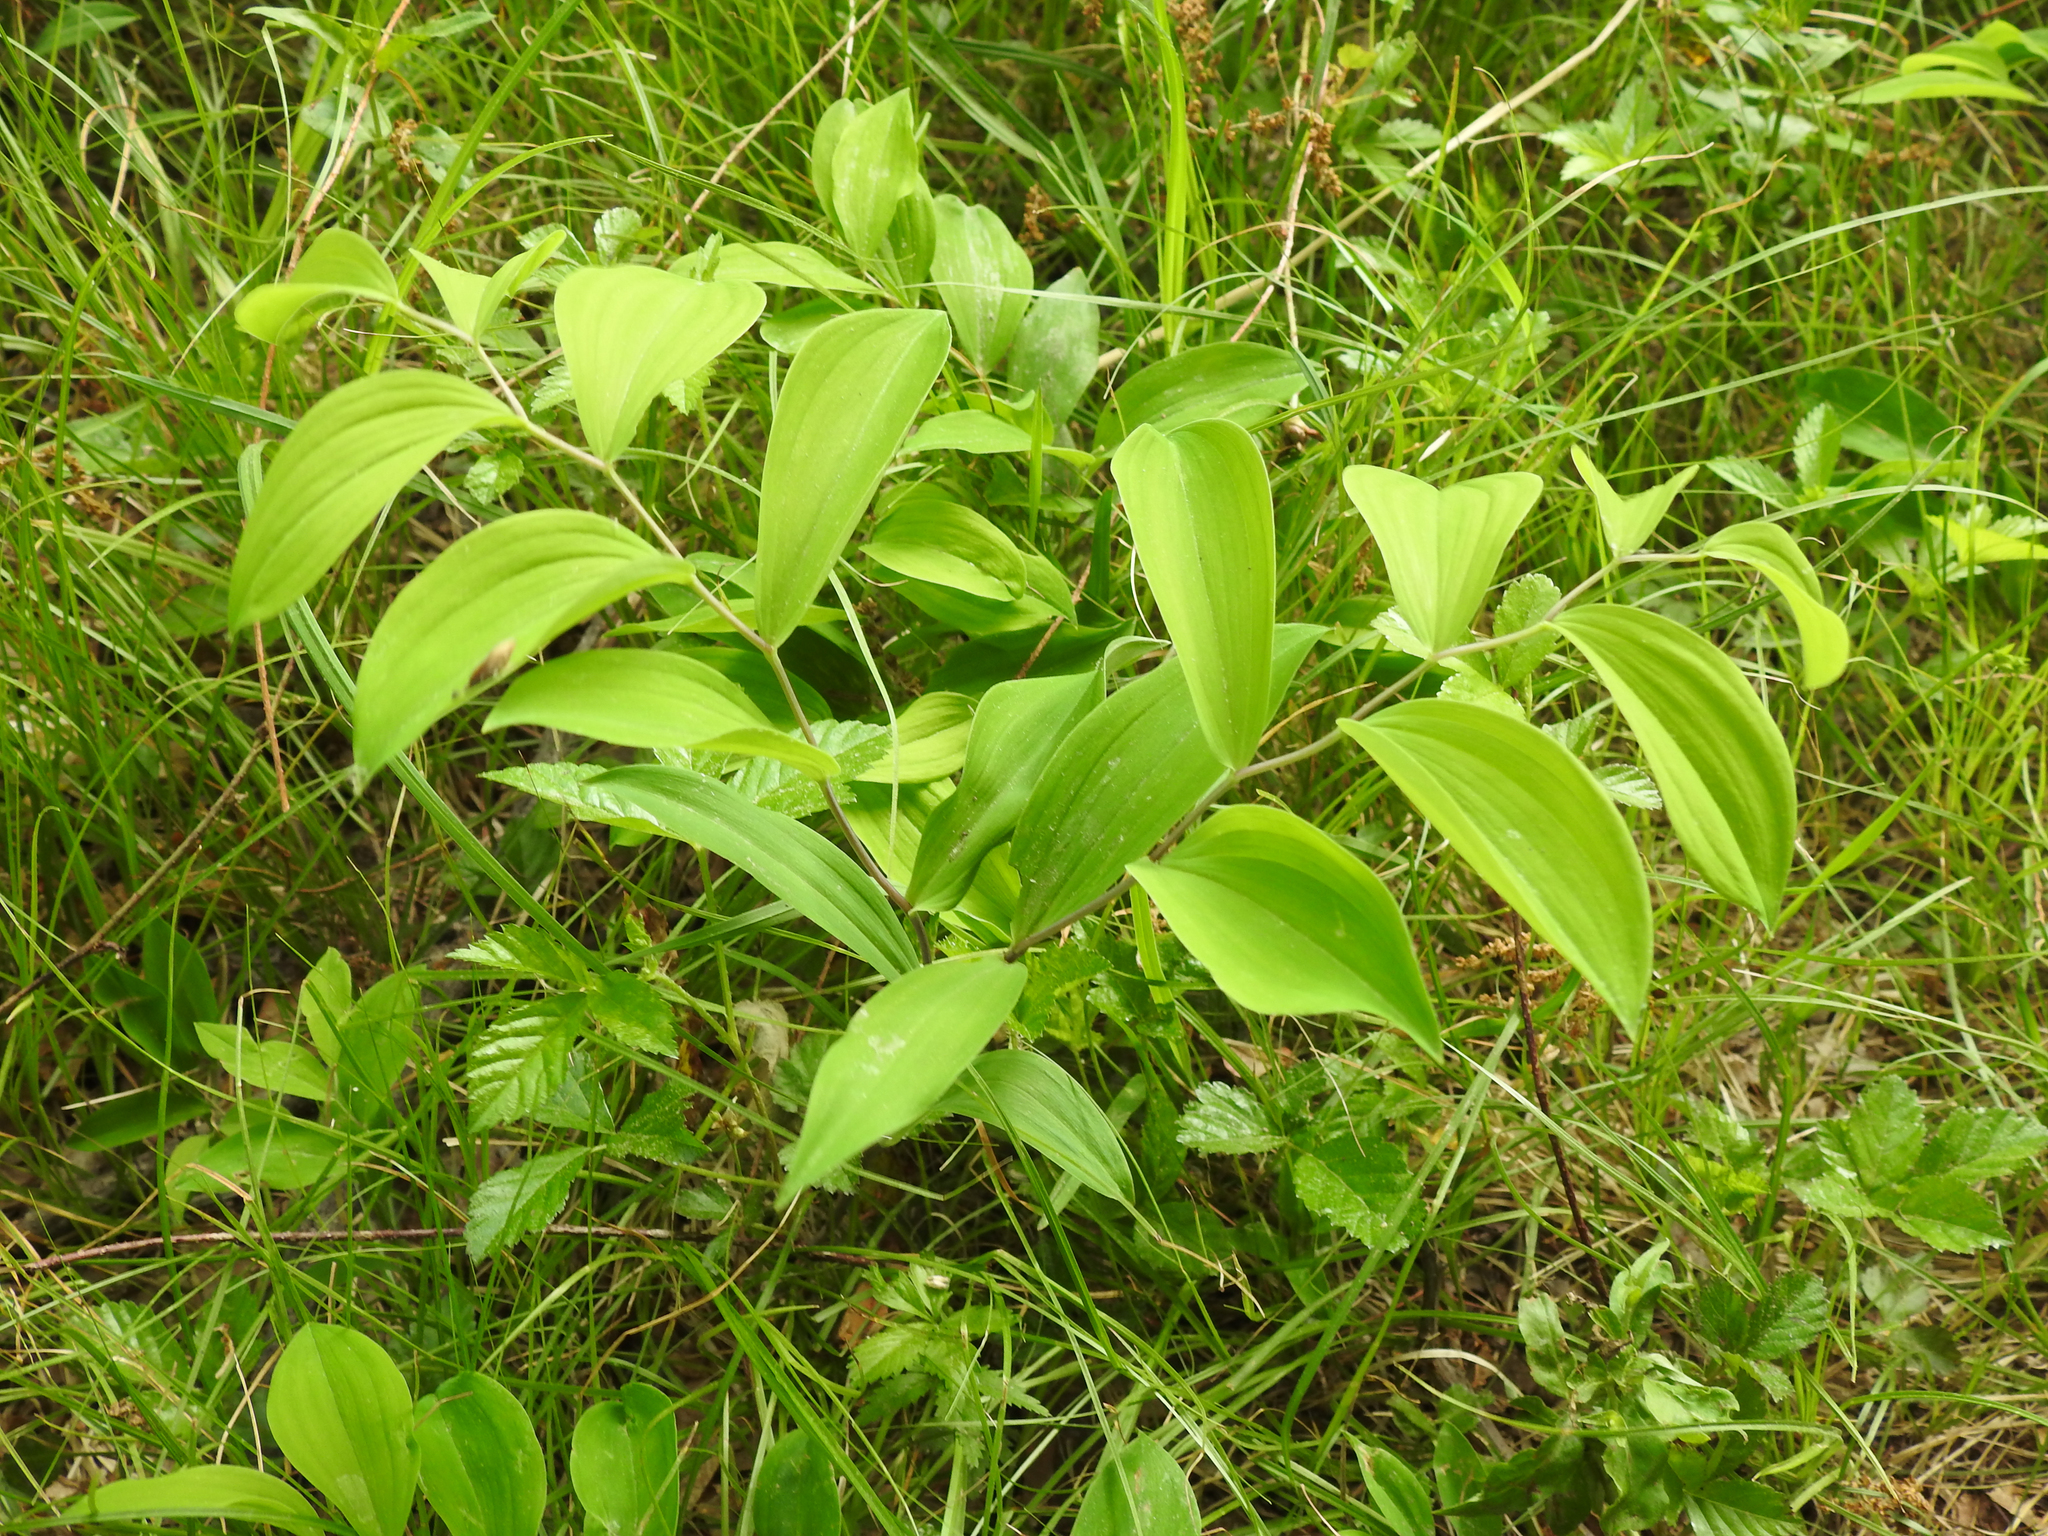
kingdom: Plantae
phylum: Tracheophyta
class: Liliopsida
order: Liliales
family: Colchicaceae
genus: Uvularia
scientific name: Uvularia sessilifolia
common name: Straw-lily
